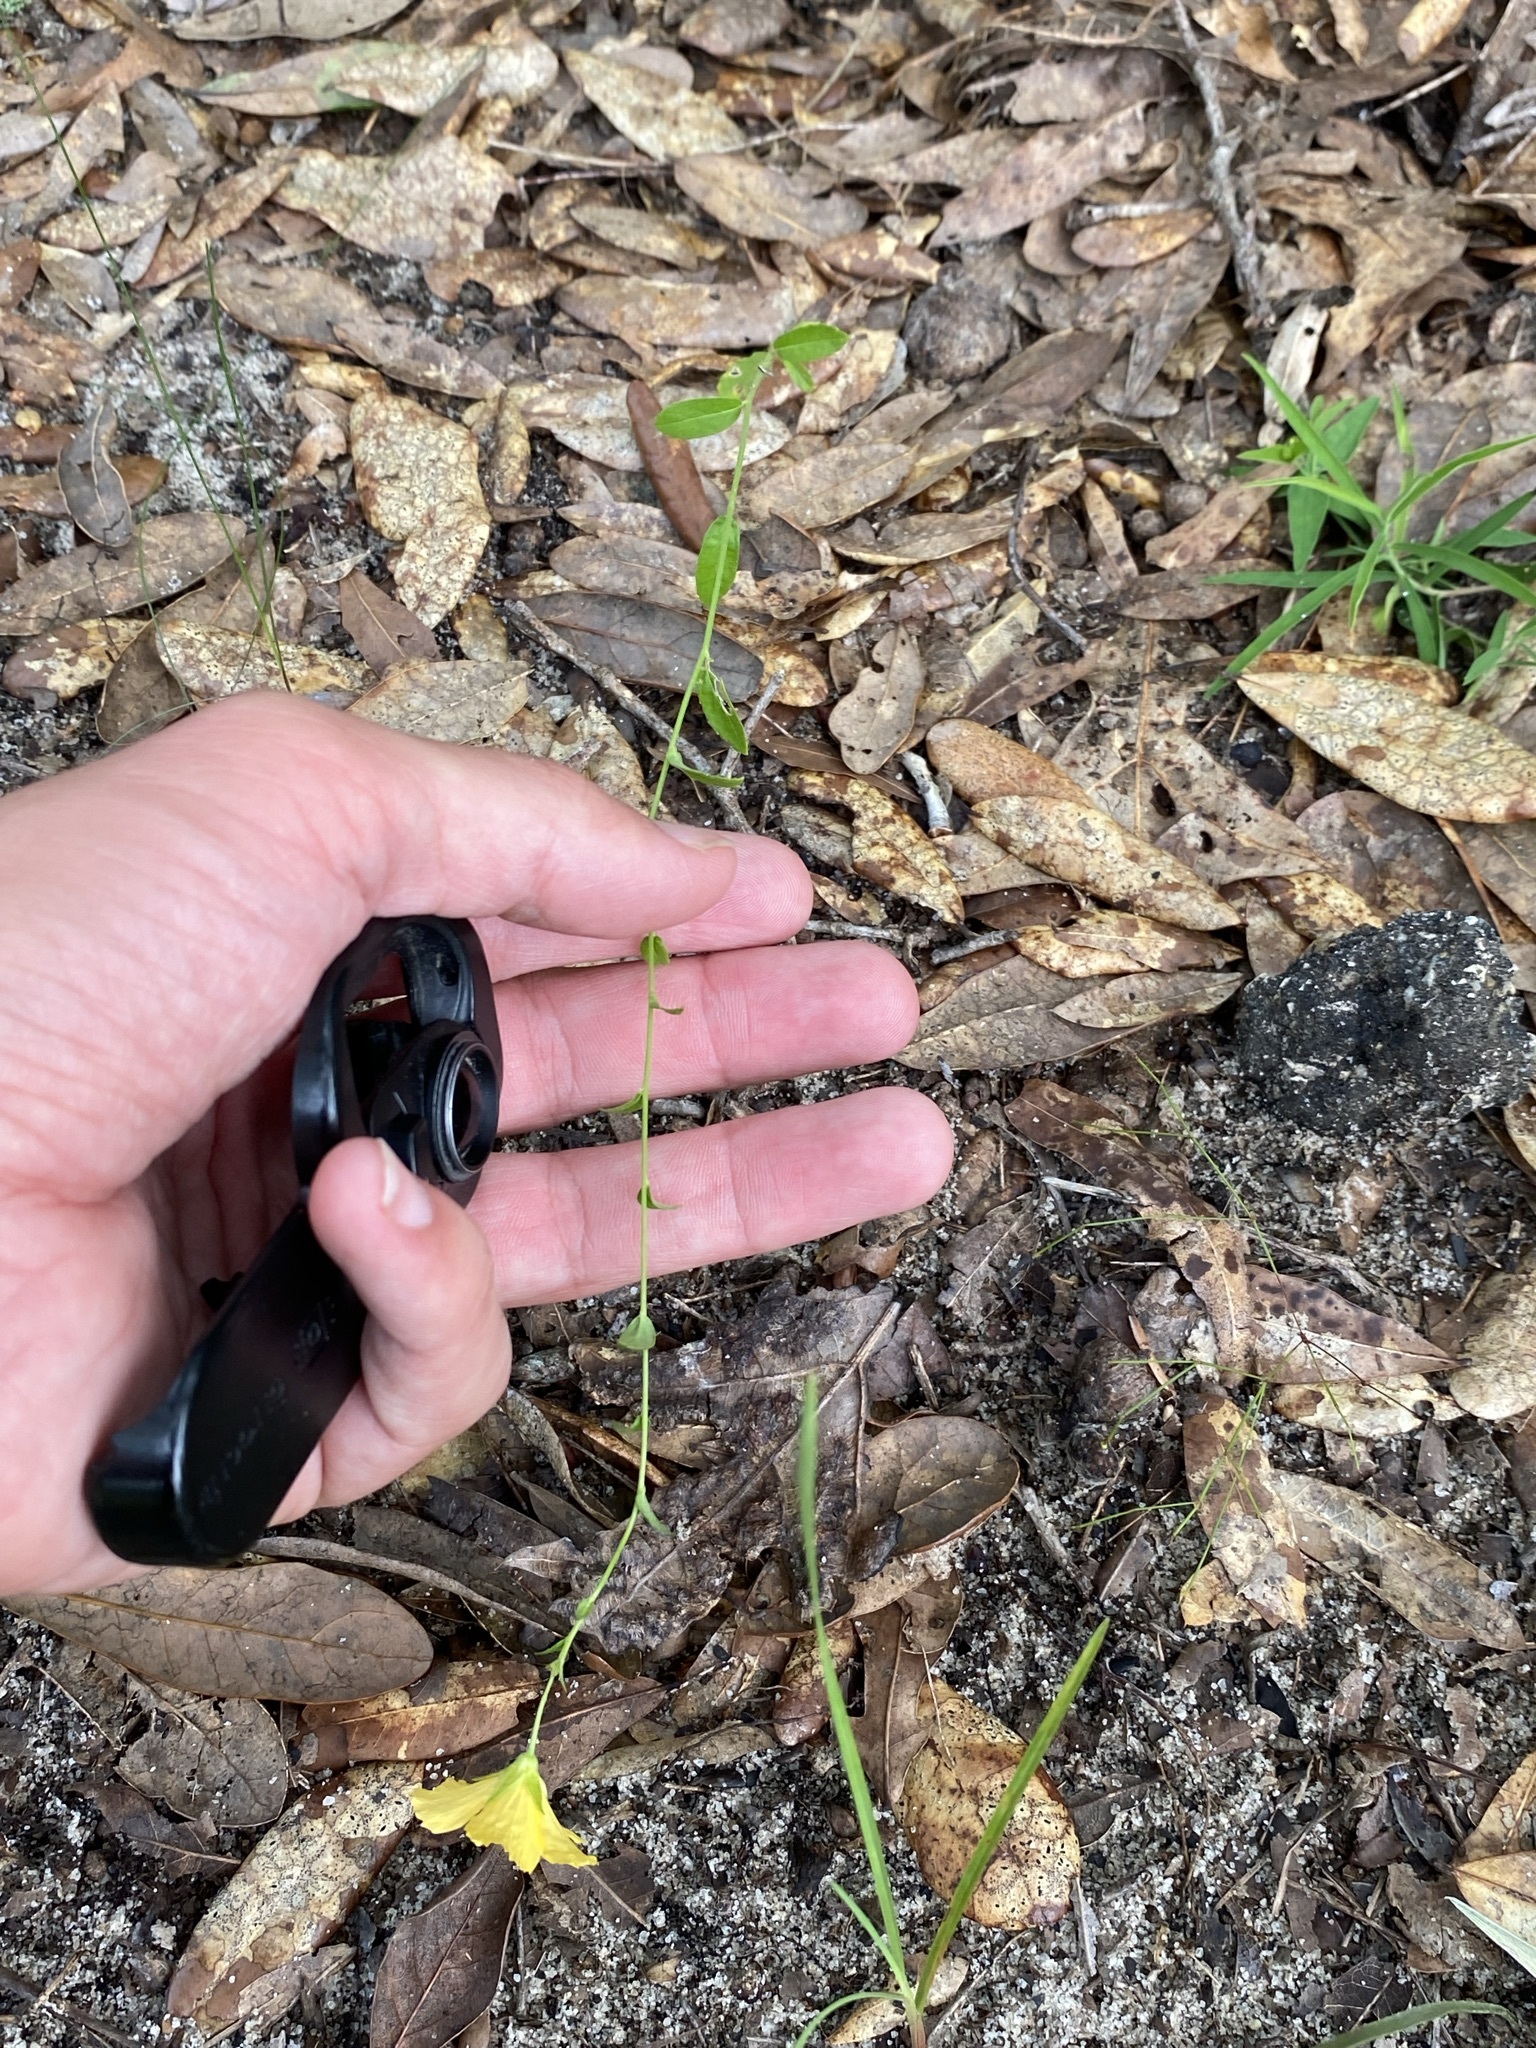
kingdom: Plantae
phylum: Tracheophyta
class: Magnoliopsida
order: Malpighiales
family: Turneraceae
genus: Piriqueta
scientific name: Piriqueta cistoides
